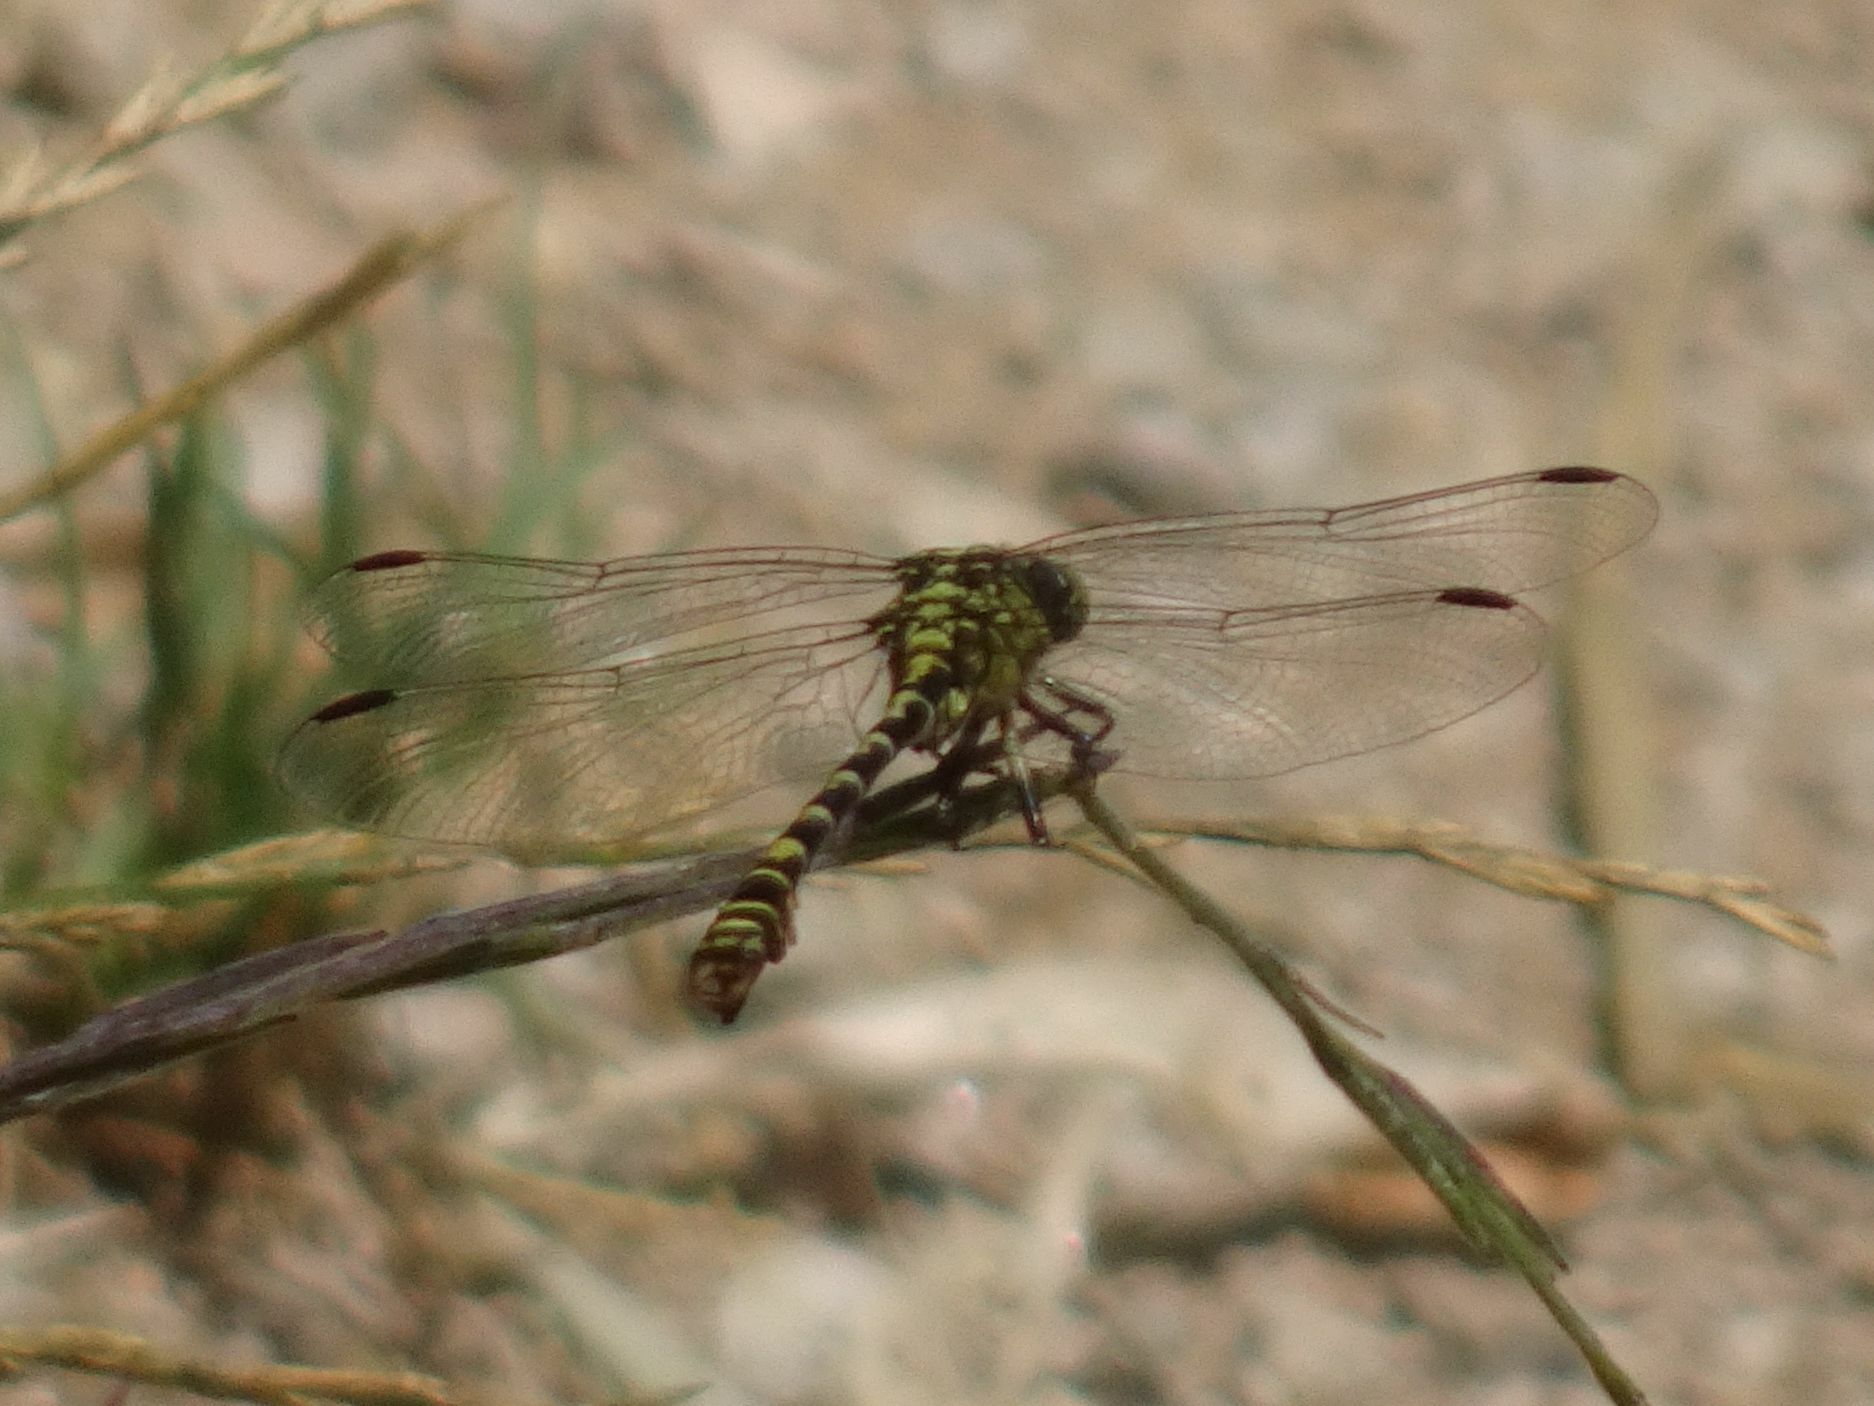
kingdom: Animalia
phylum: Arthropoda
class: Insecta
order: Odonata
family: Gomphidae
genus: Onychogomphus
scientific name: Onychogomphus forcipatus
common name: Small pincertail
